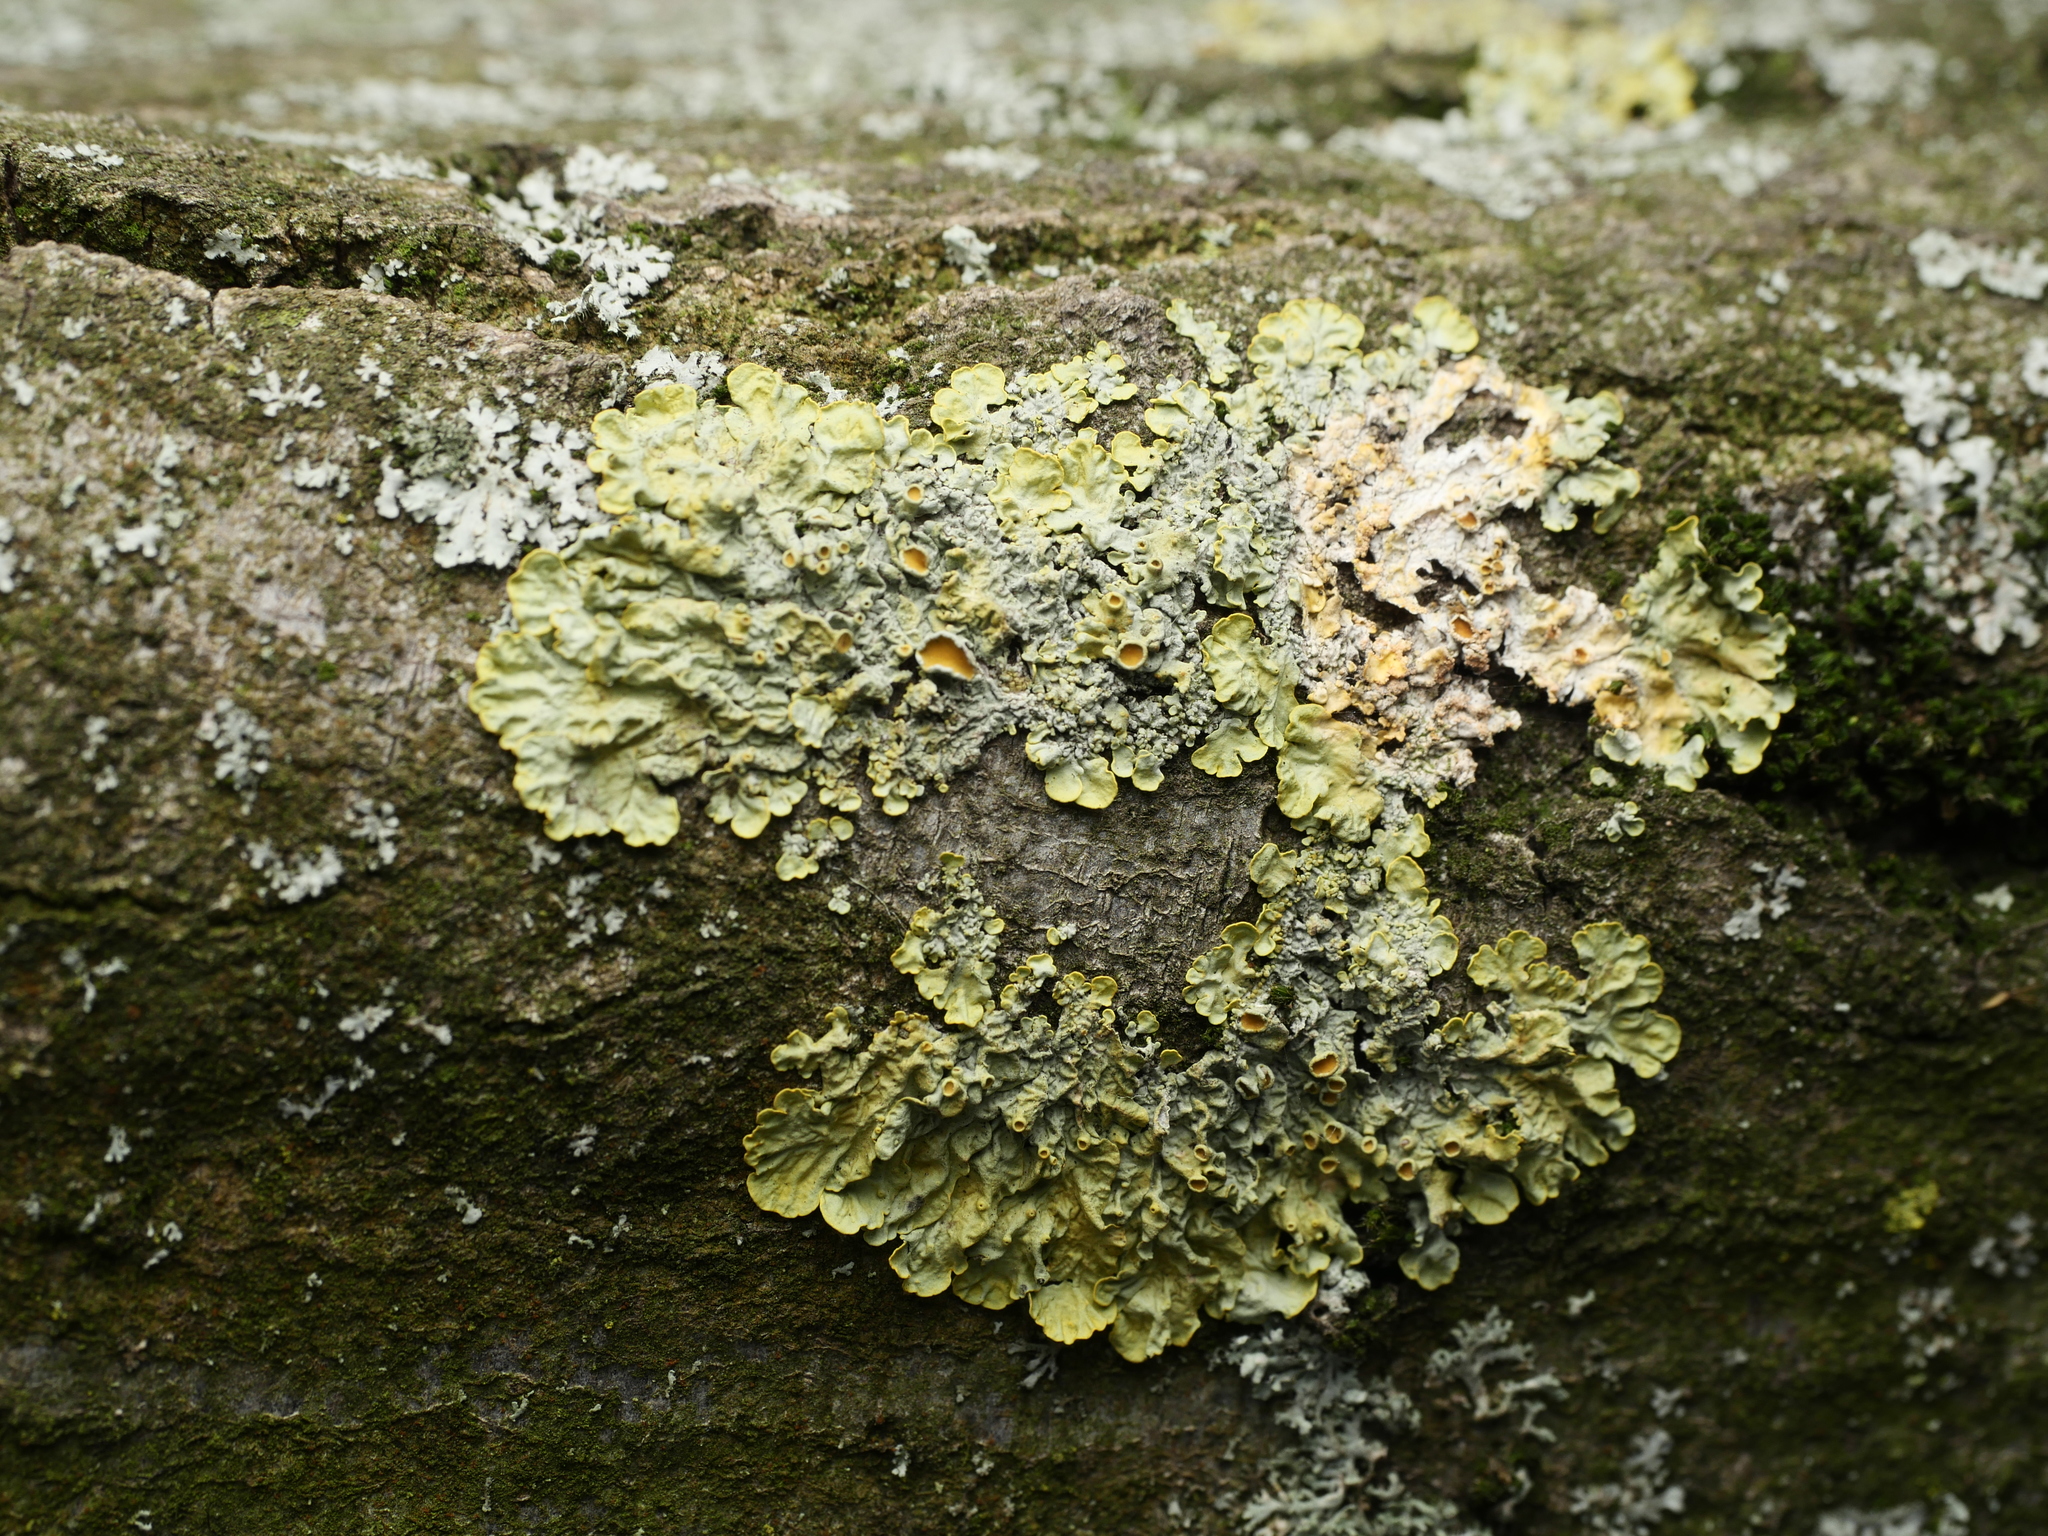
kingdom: Fungi
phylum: Ascomycota
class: Lecanoromycetes
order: Teloschistales
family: Teloschistaceae
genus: Xanthoria
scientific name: Xanthoria parietina
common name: Common orange lichen
